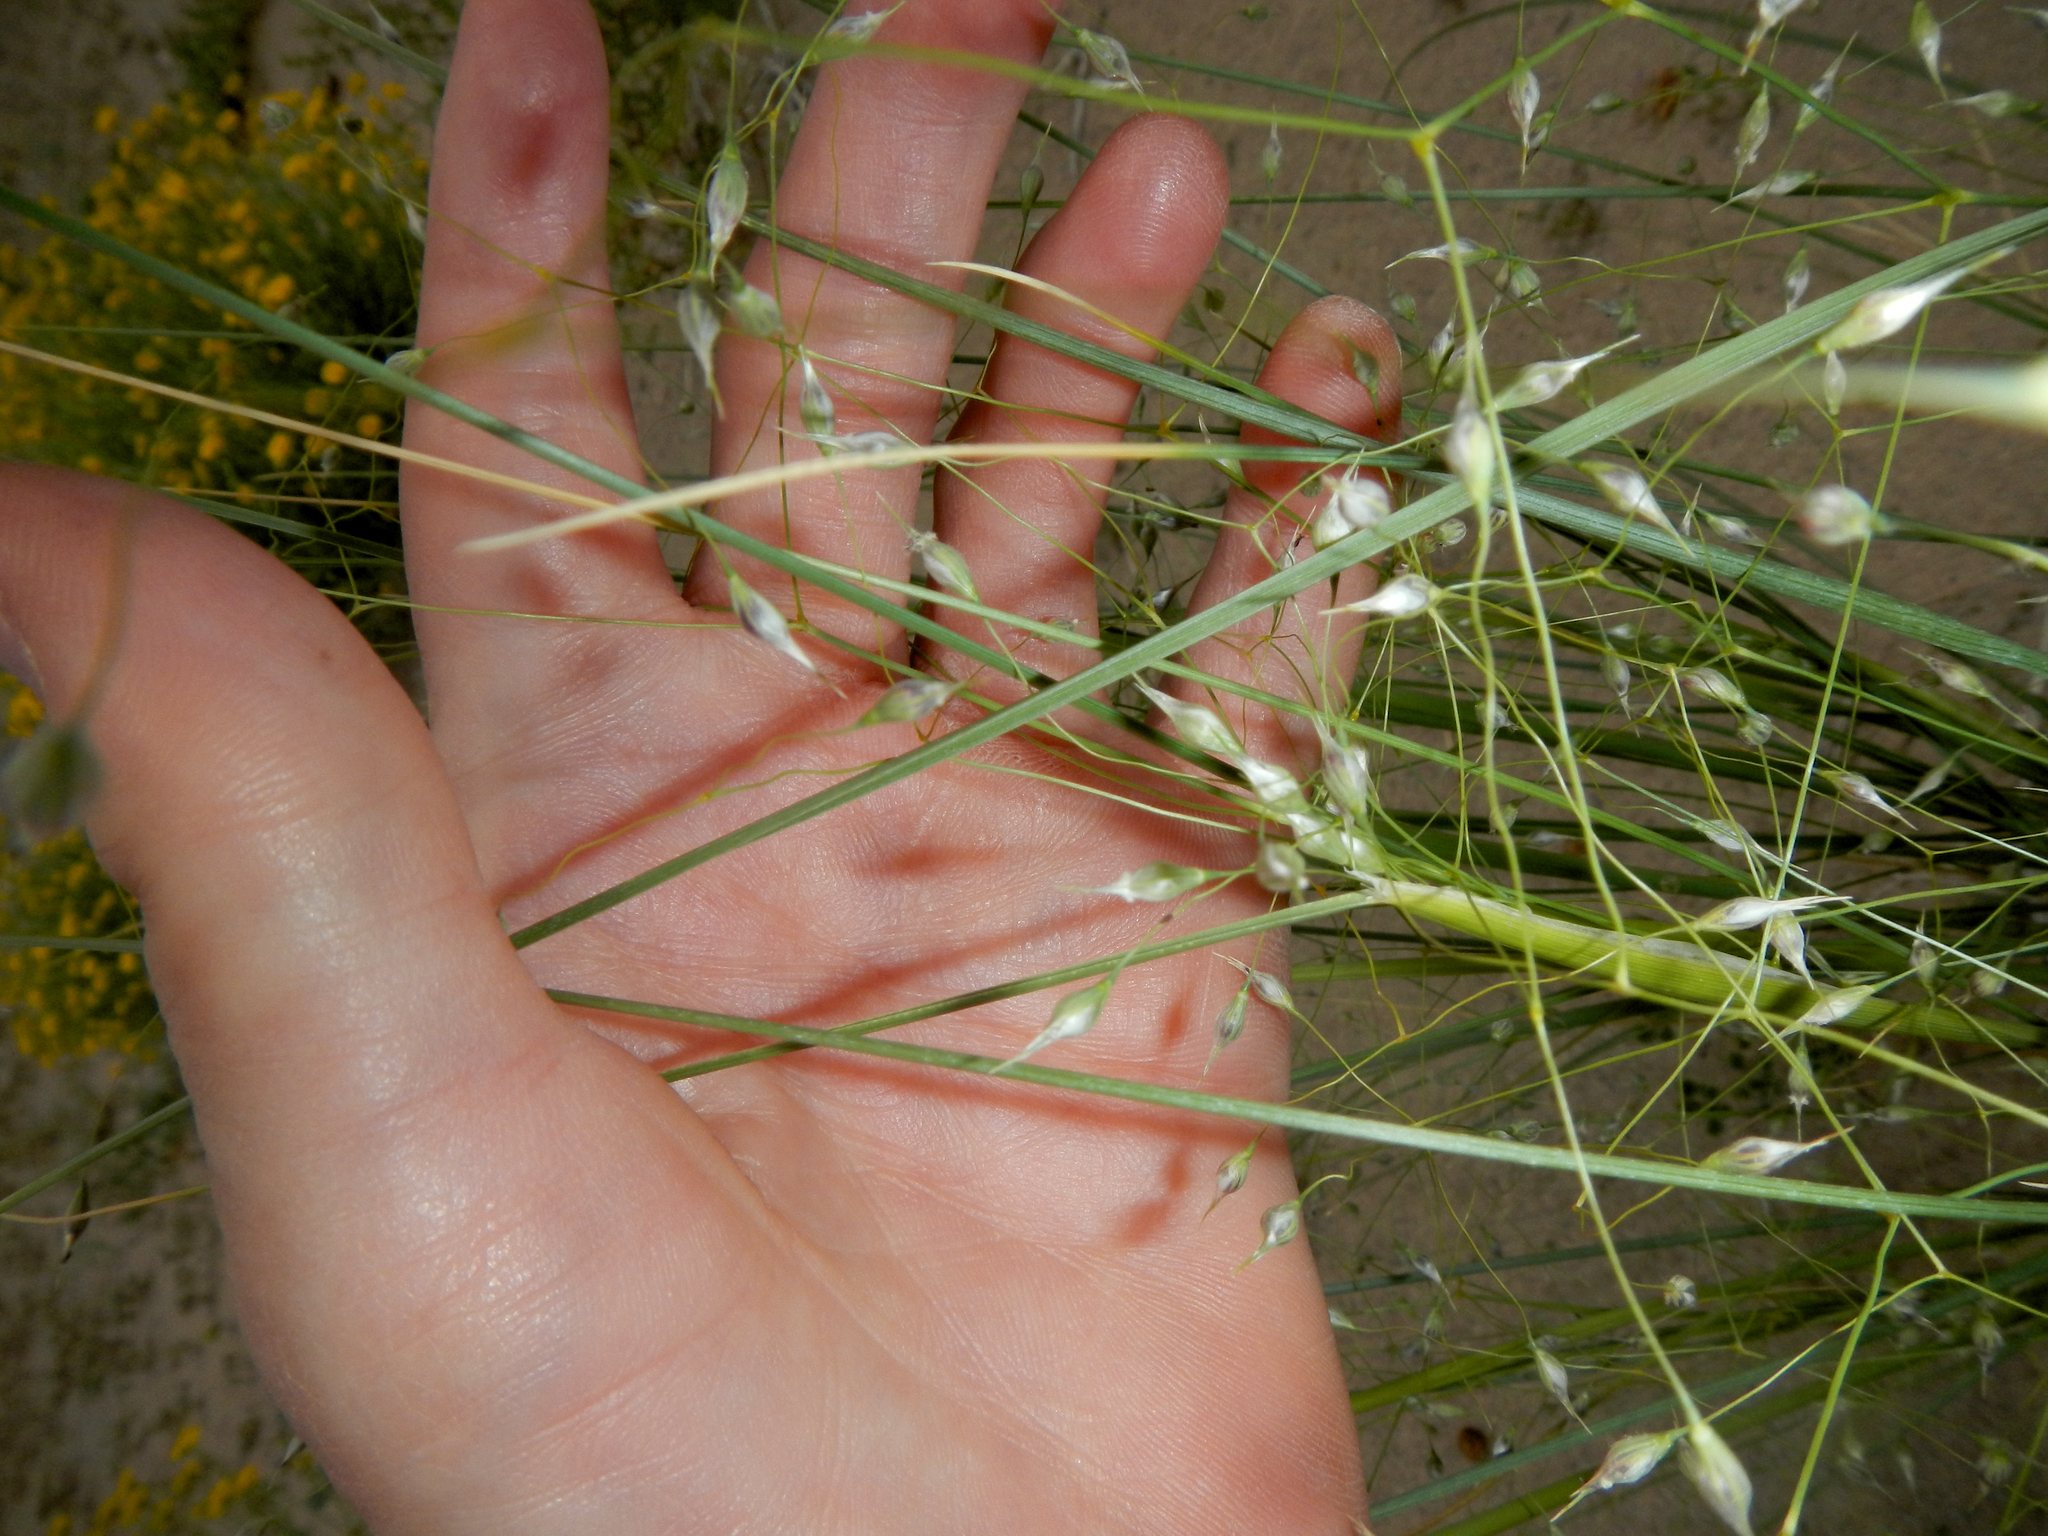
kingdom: Plantae
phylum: Tracheophyta
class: Liliopsida
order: Poales
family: Poaceae
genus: Eriocoma
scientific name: Eriocoma hymenoides
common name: Indian mountain ricegrass
